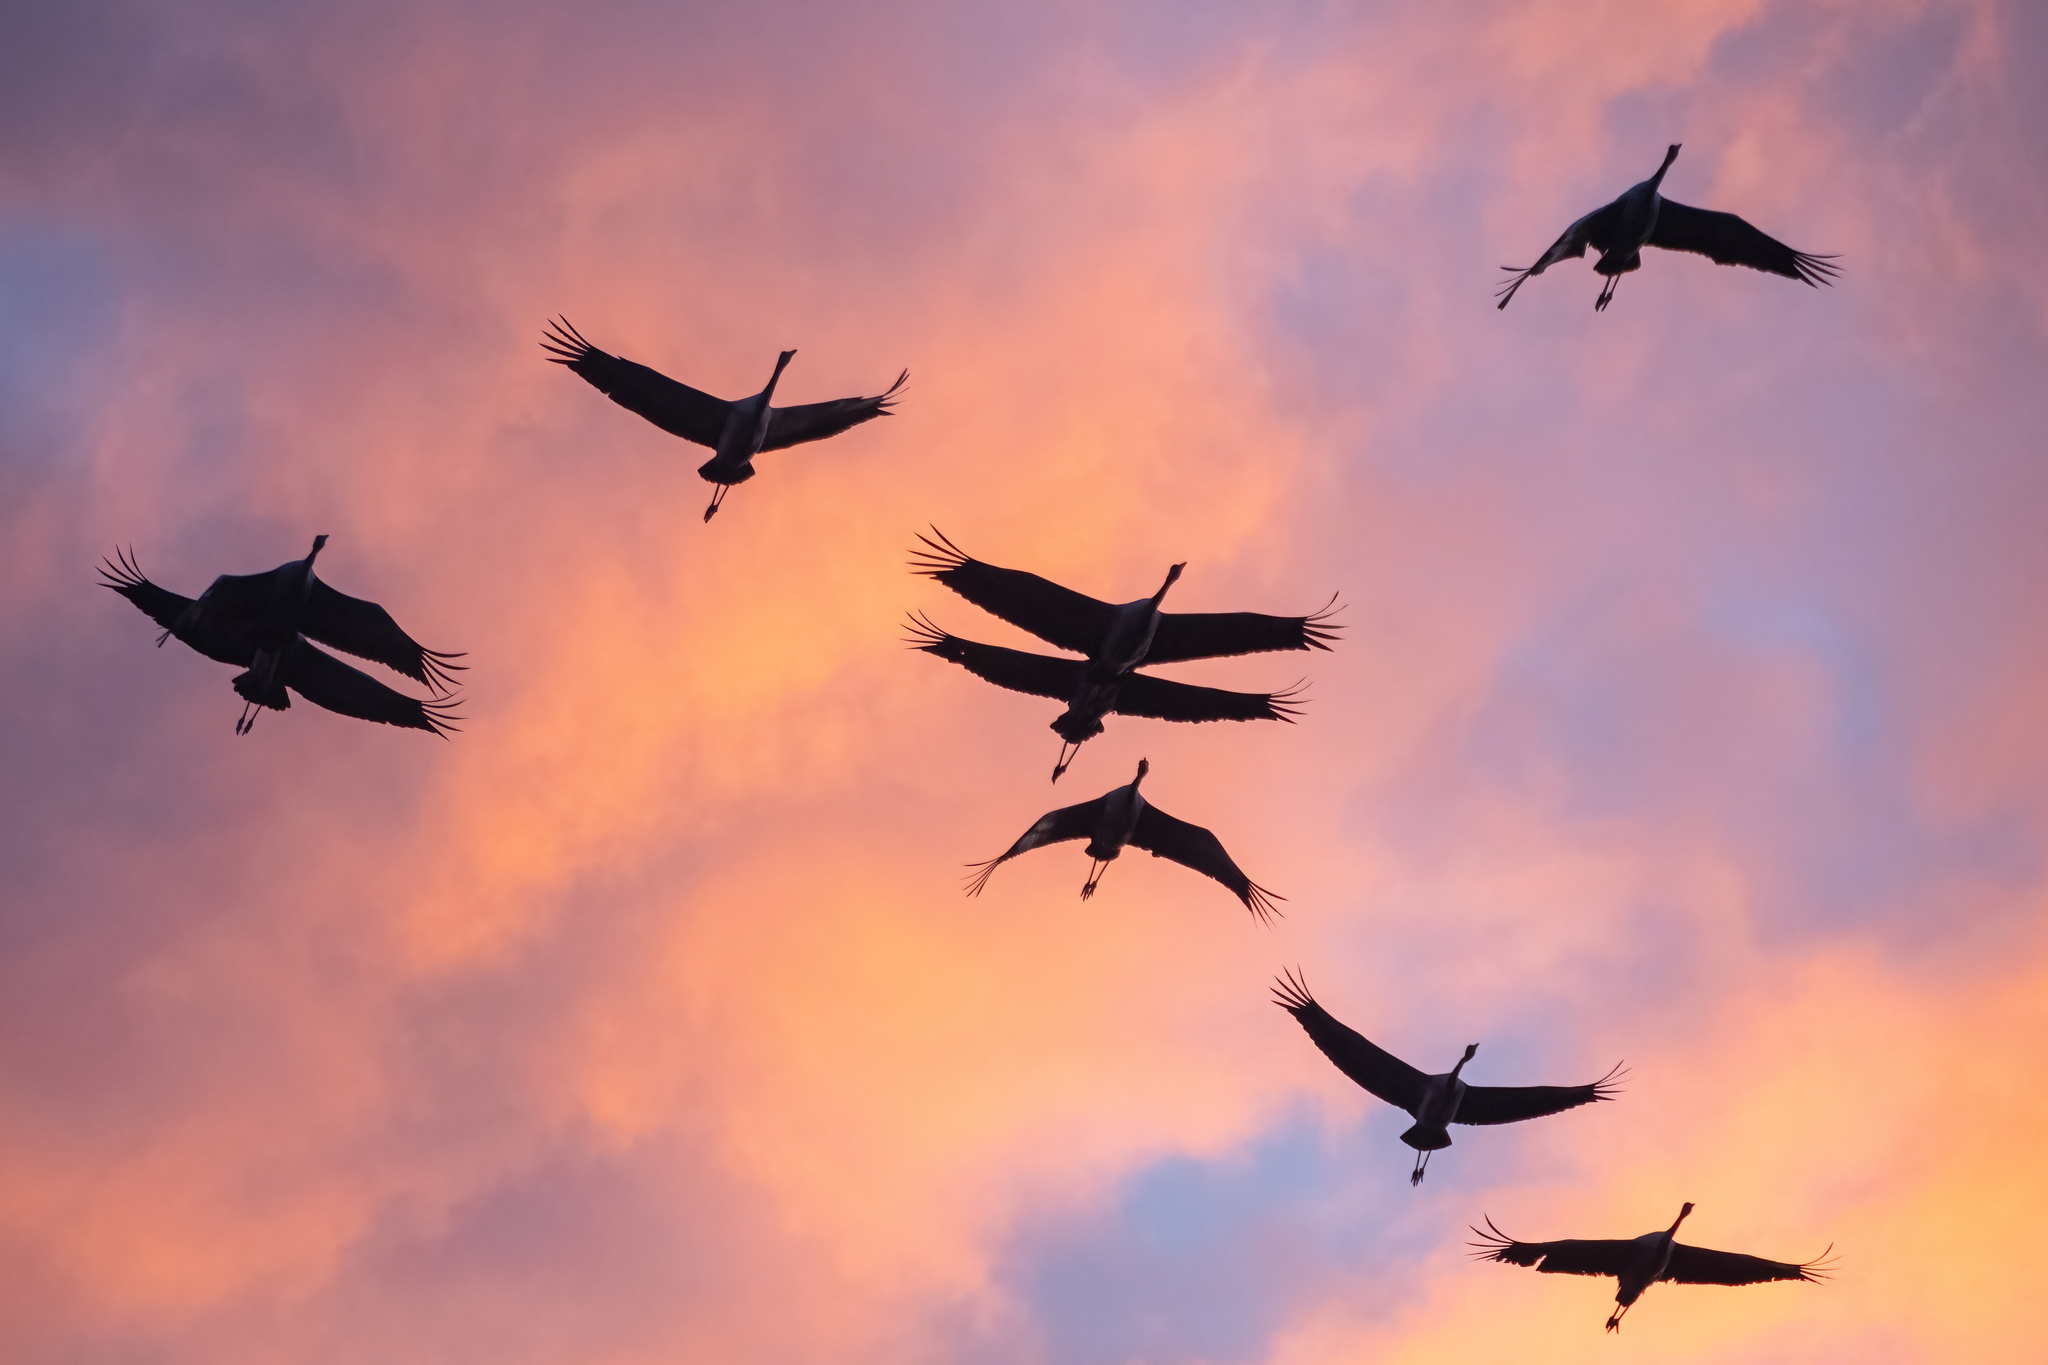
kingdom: Animalia
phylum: Chordata
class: Aves
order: Gruiformes
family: Gruidae
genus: Grus
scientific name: Grus grus
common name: Common crane
